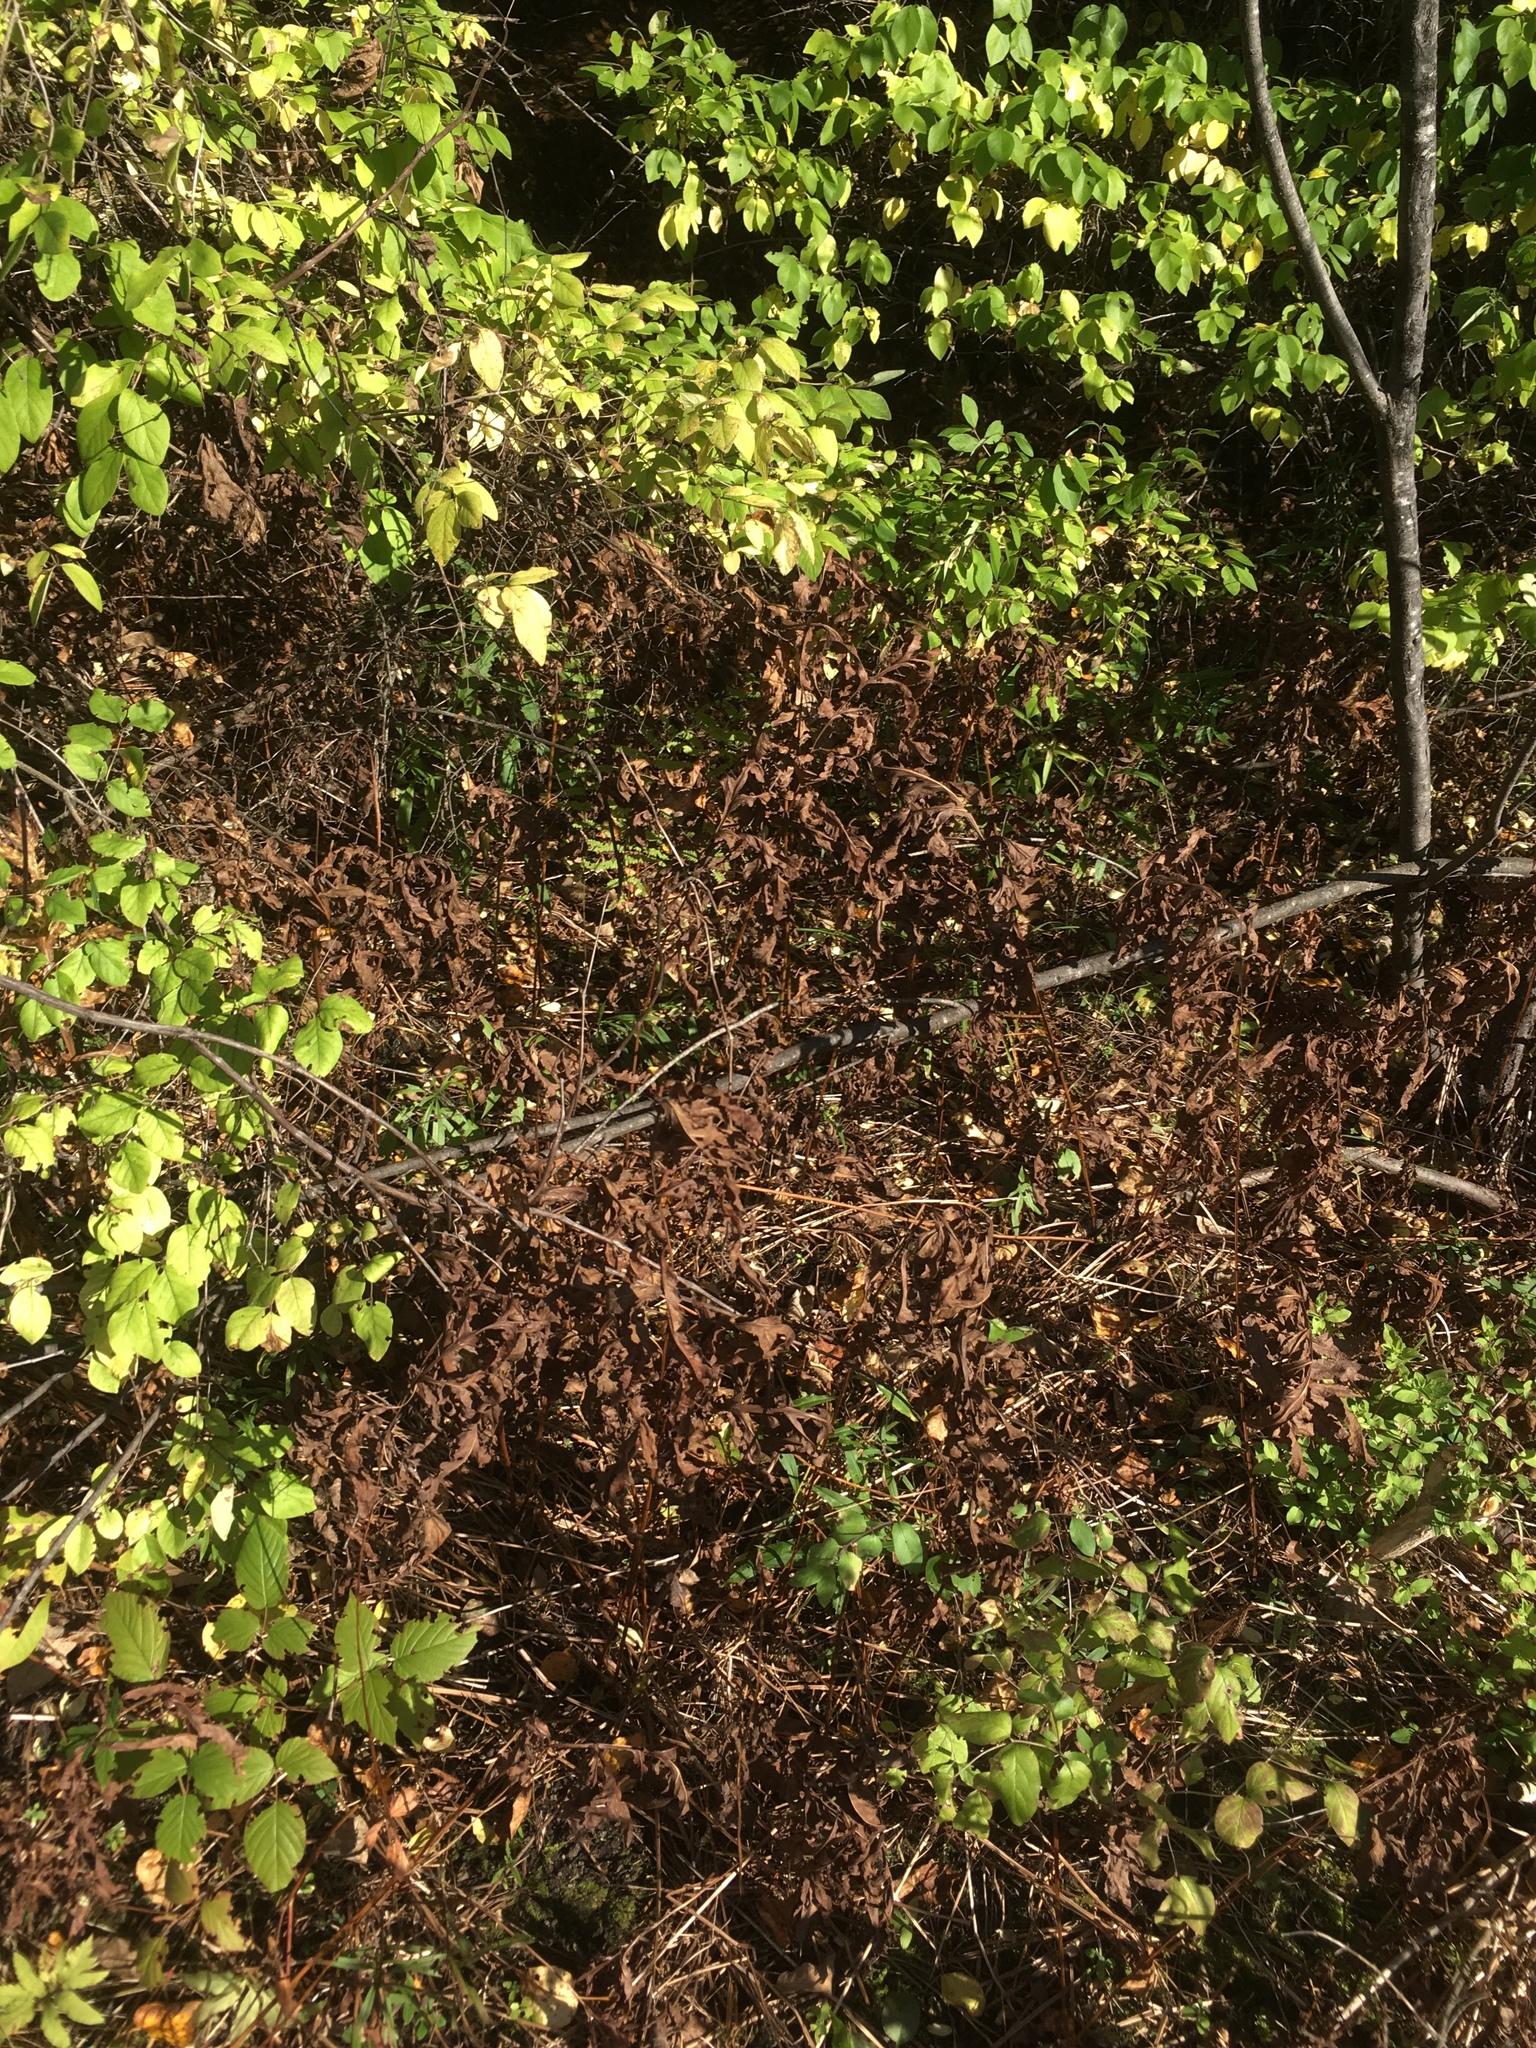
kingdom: Plantae
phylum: Tracheophyta
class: Polypodiopsida
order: Polypodiales
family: Onocleaceae
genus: Onoclea
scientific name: Onoclea sensibilis
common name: Sensitive fern
